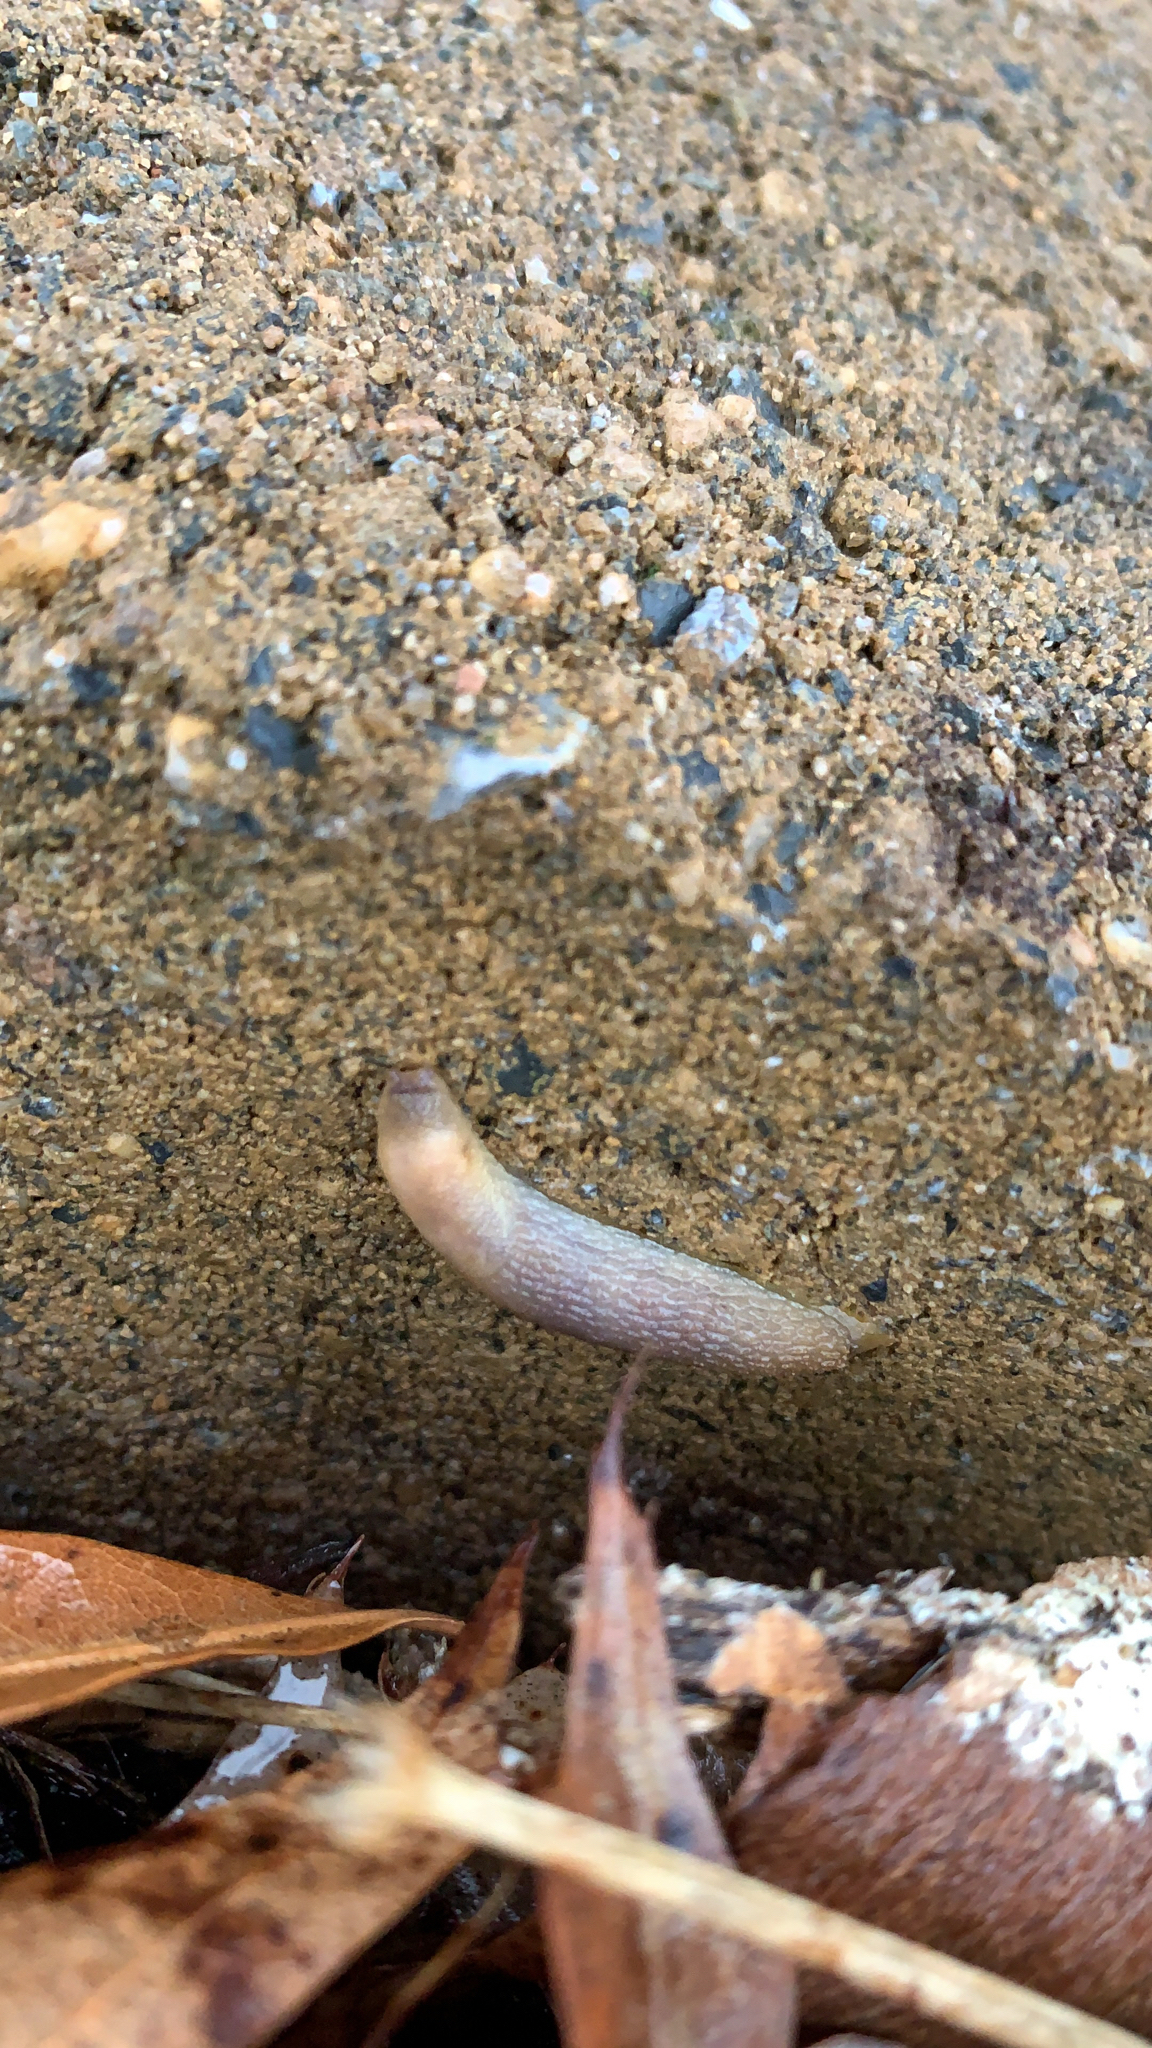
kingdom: Animalia
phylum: Mollusca
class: Gastropoda
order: Stylommatophora
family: Arionidae
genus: Arion
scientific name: Arion intermedius
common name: Hedgehog slug
